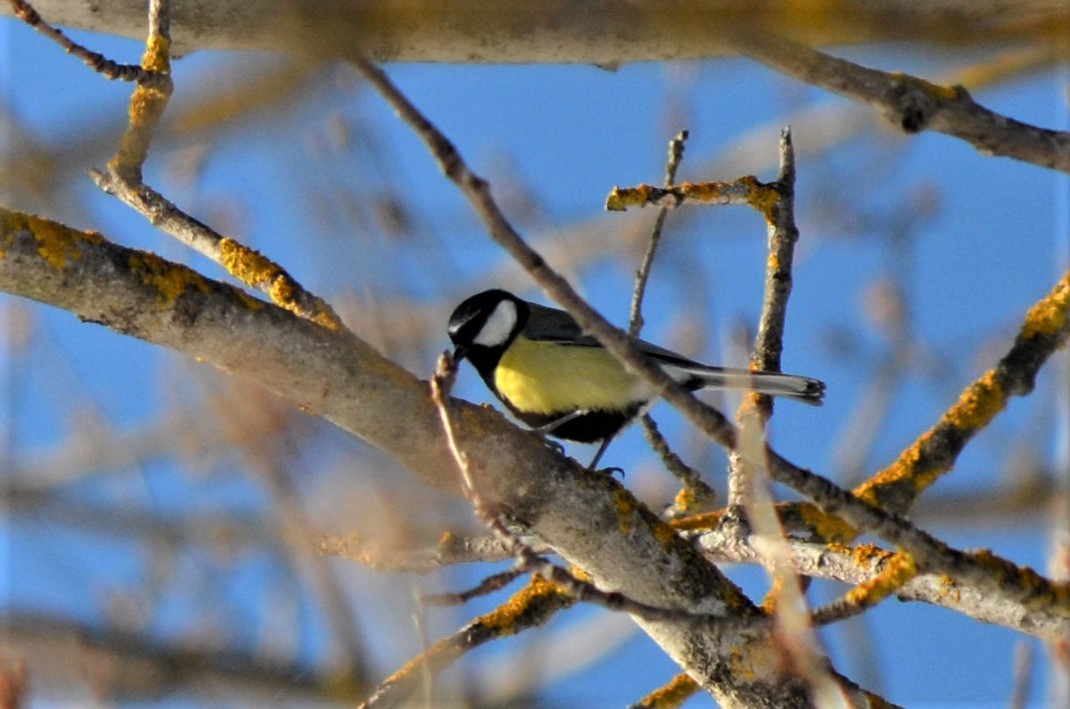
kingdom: Animalia
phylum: Chordata
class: Aves
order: Passeriformes
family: Paridae
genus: Parus
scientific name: Parus major
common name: Great tit
